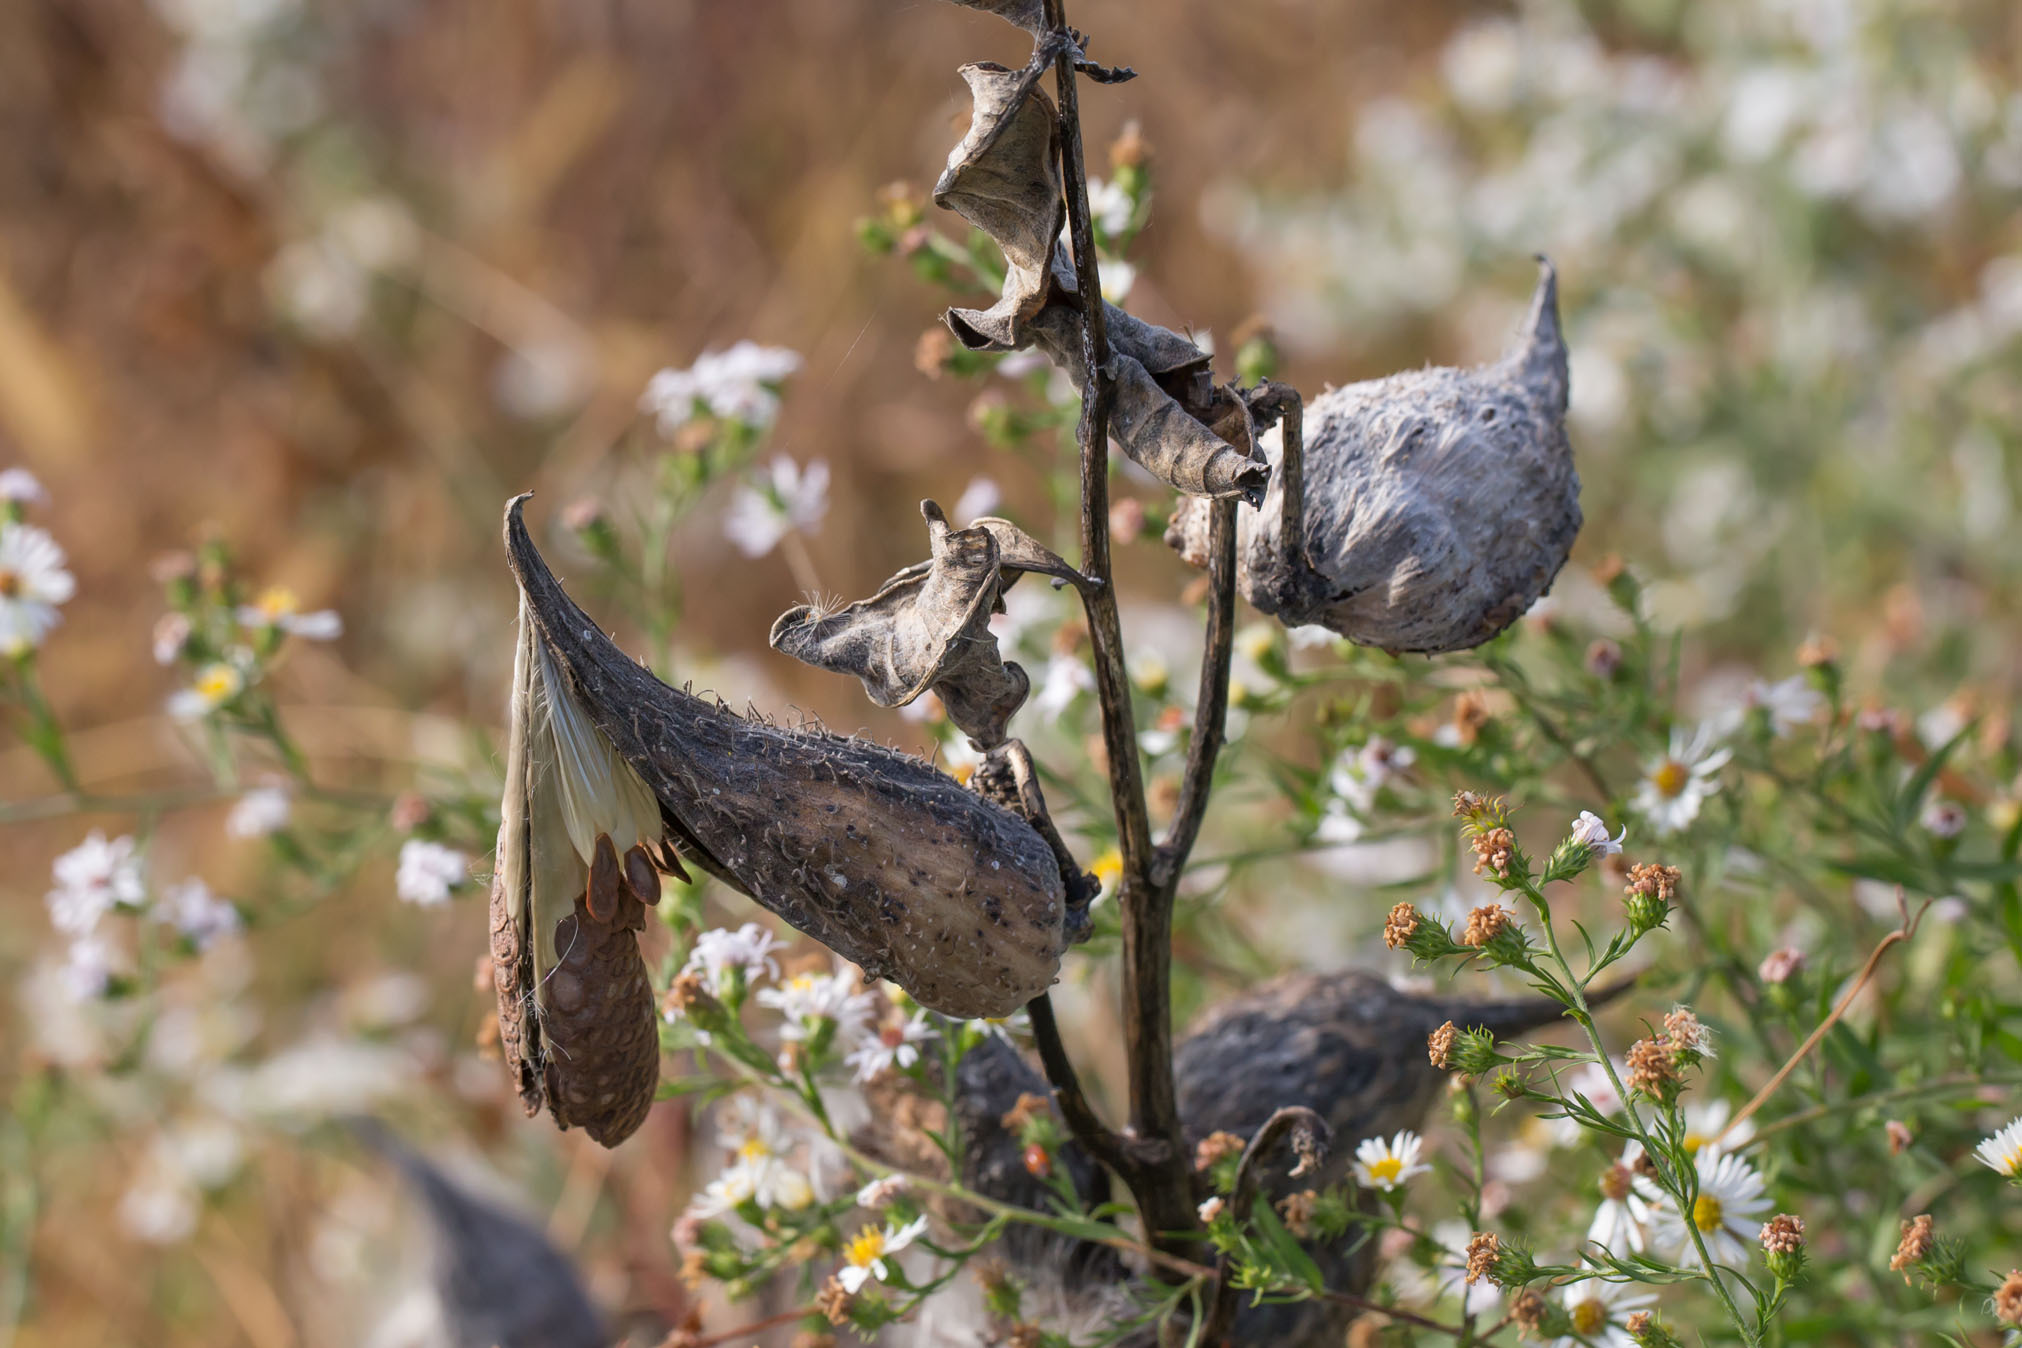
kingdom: Plantae
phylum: Tracheophyta
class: Magnoliopsida
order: Gentianales
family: Apocynaceae
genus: Asclepias
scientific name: Asclepias syriaca
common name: Common milkweed
